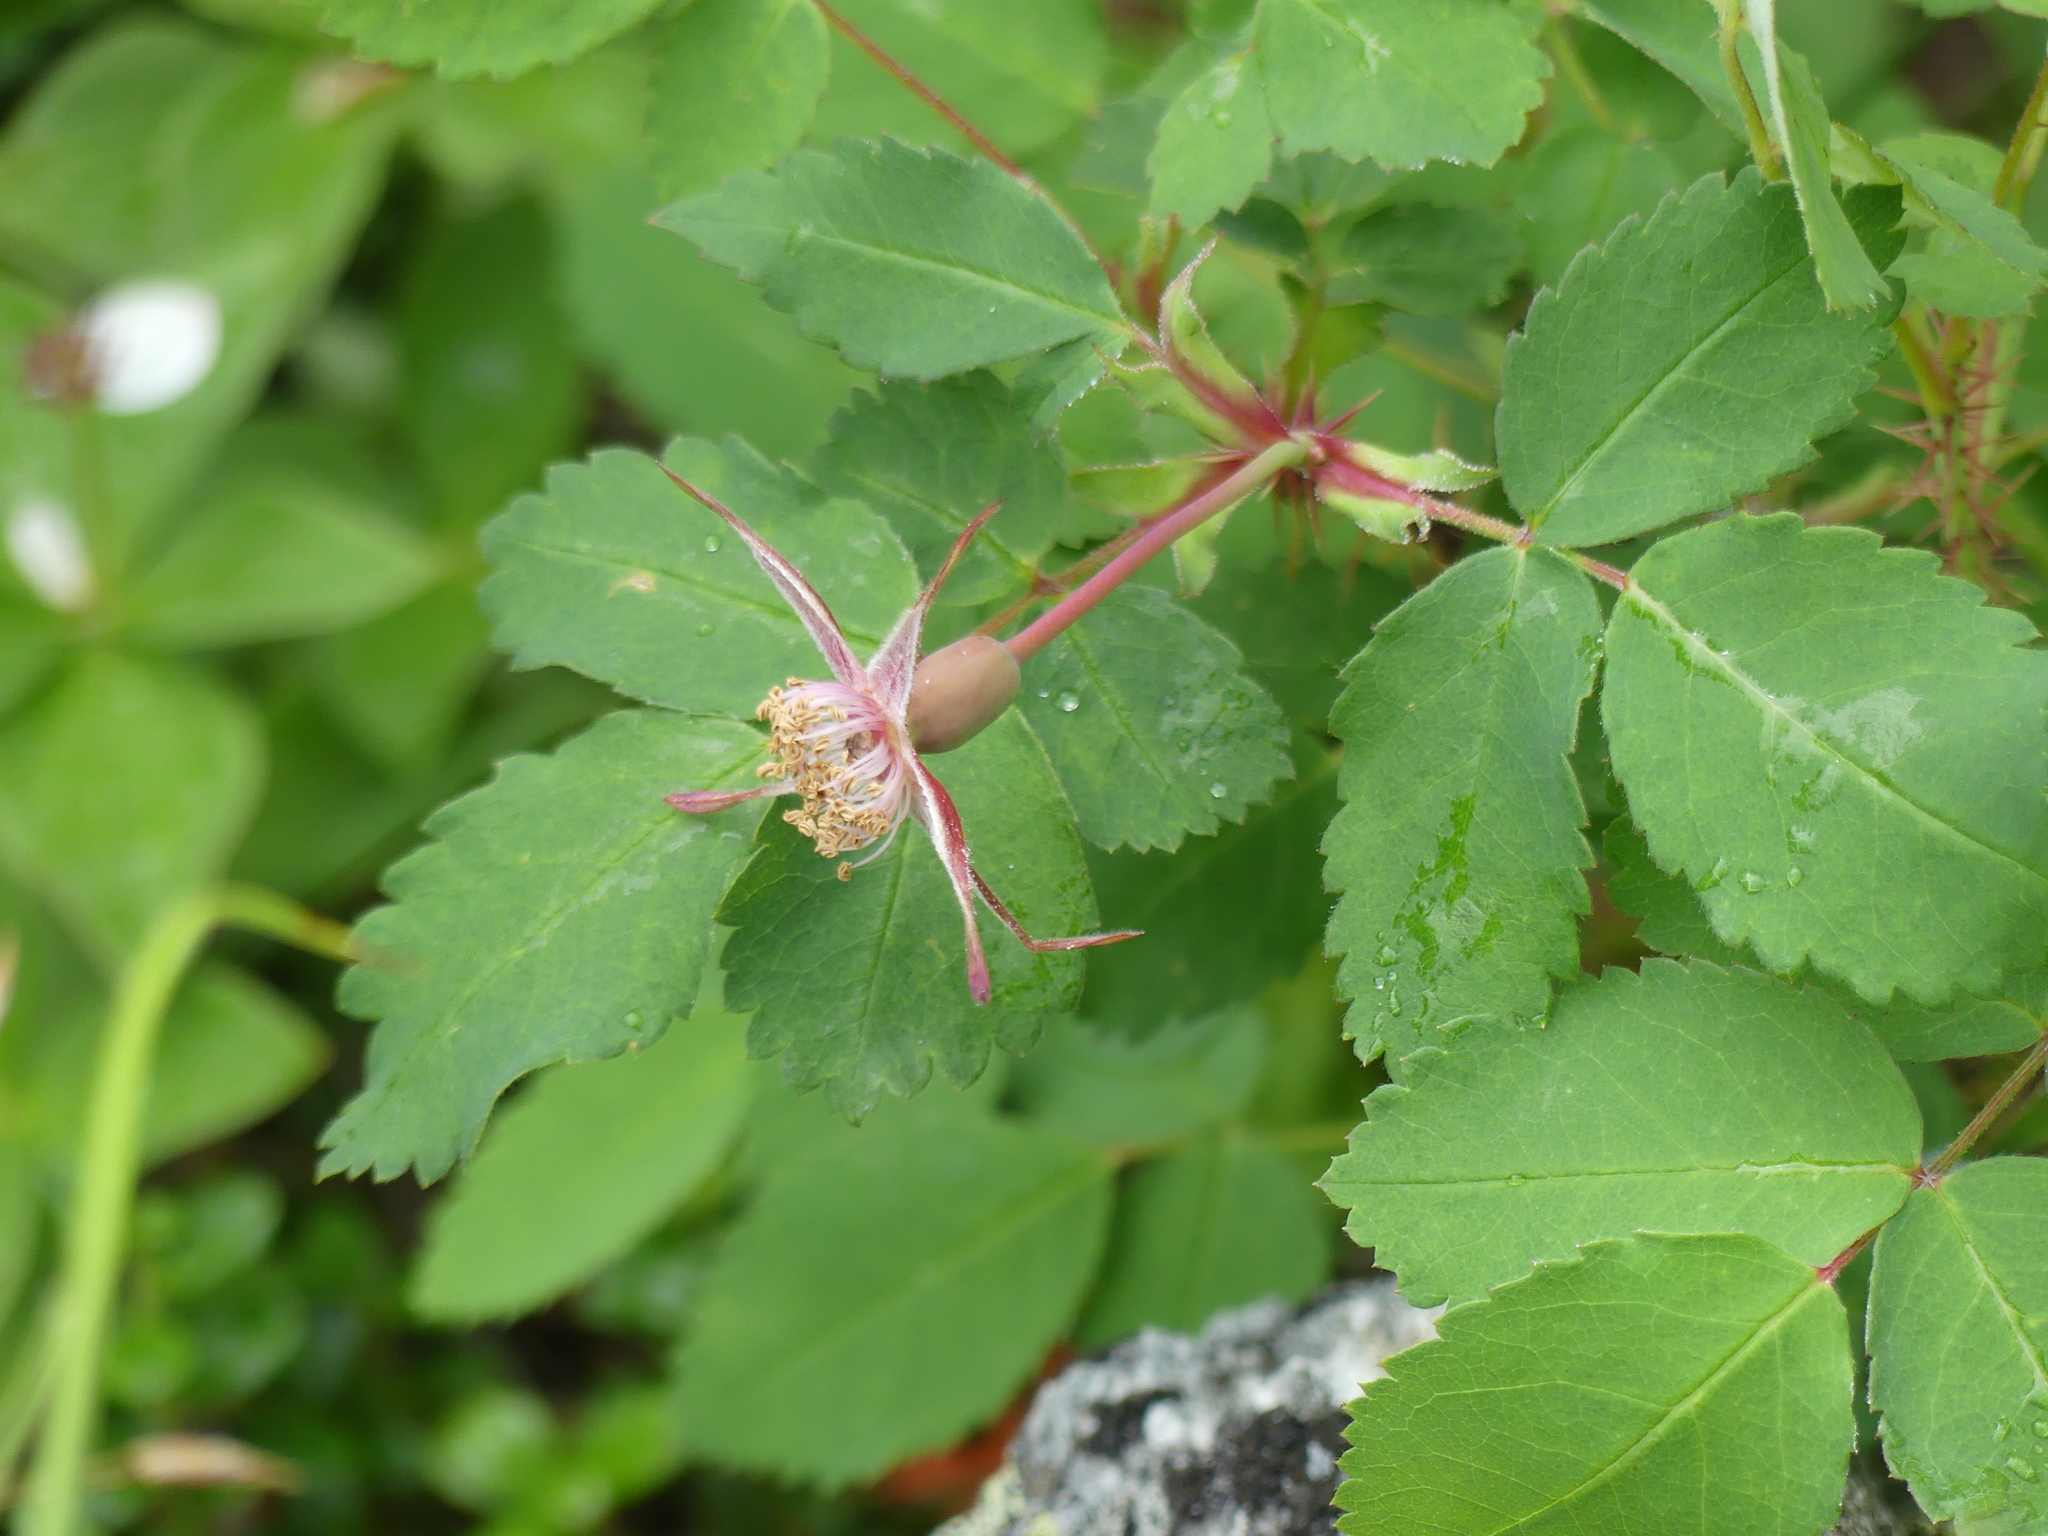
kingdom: Plantae
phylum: Tracheophyta
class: Magnoliopsida
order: Rosales
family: Rosaceae
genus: Rosa
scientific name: Rosa acicularis
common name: Prickly rose
